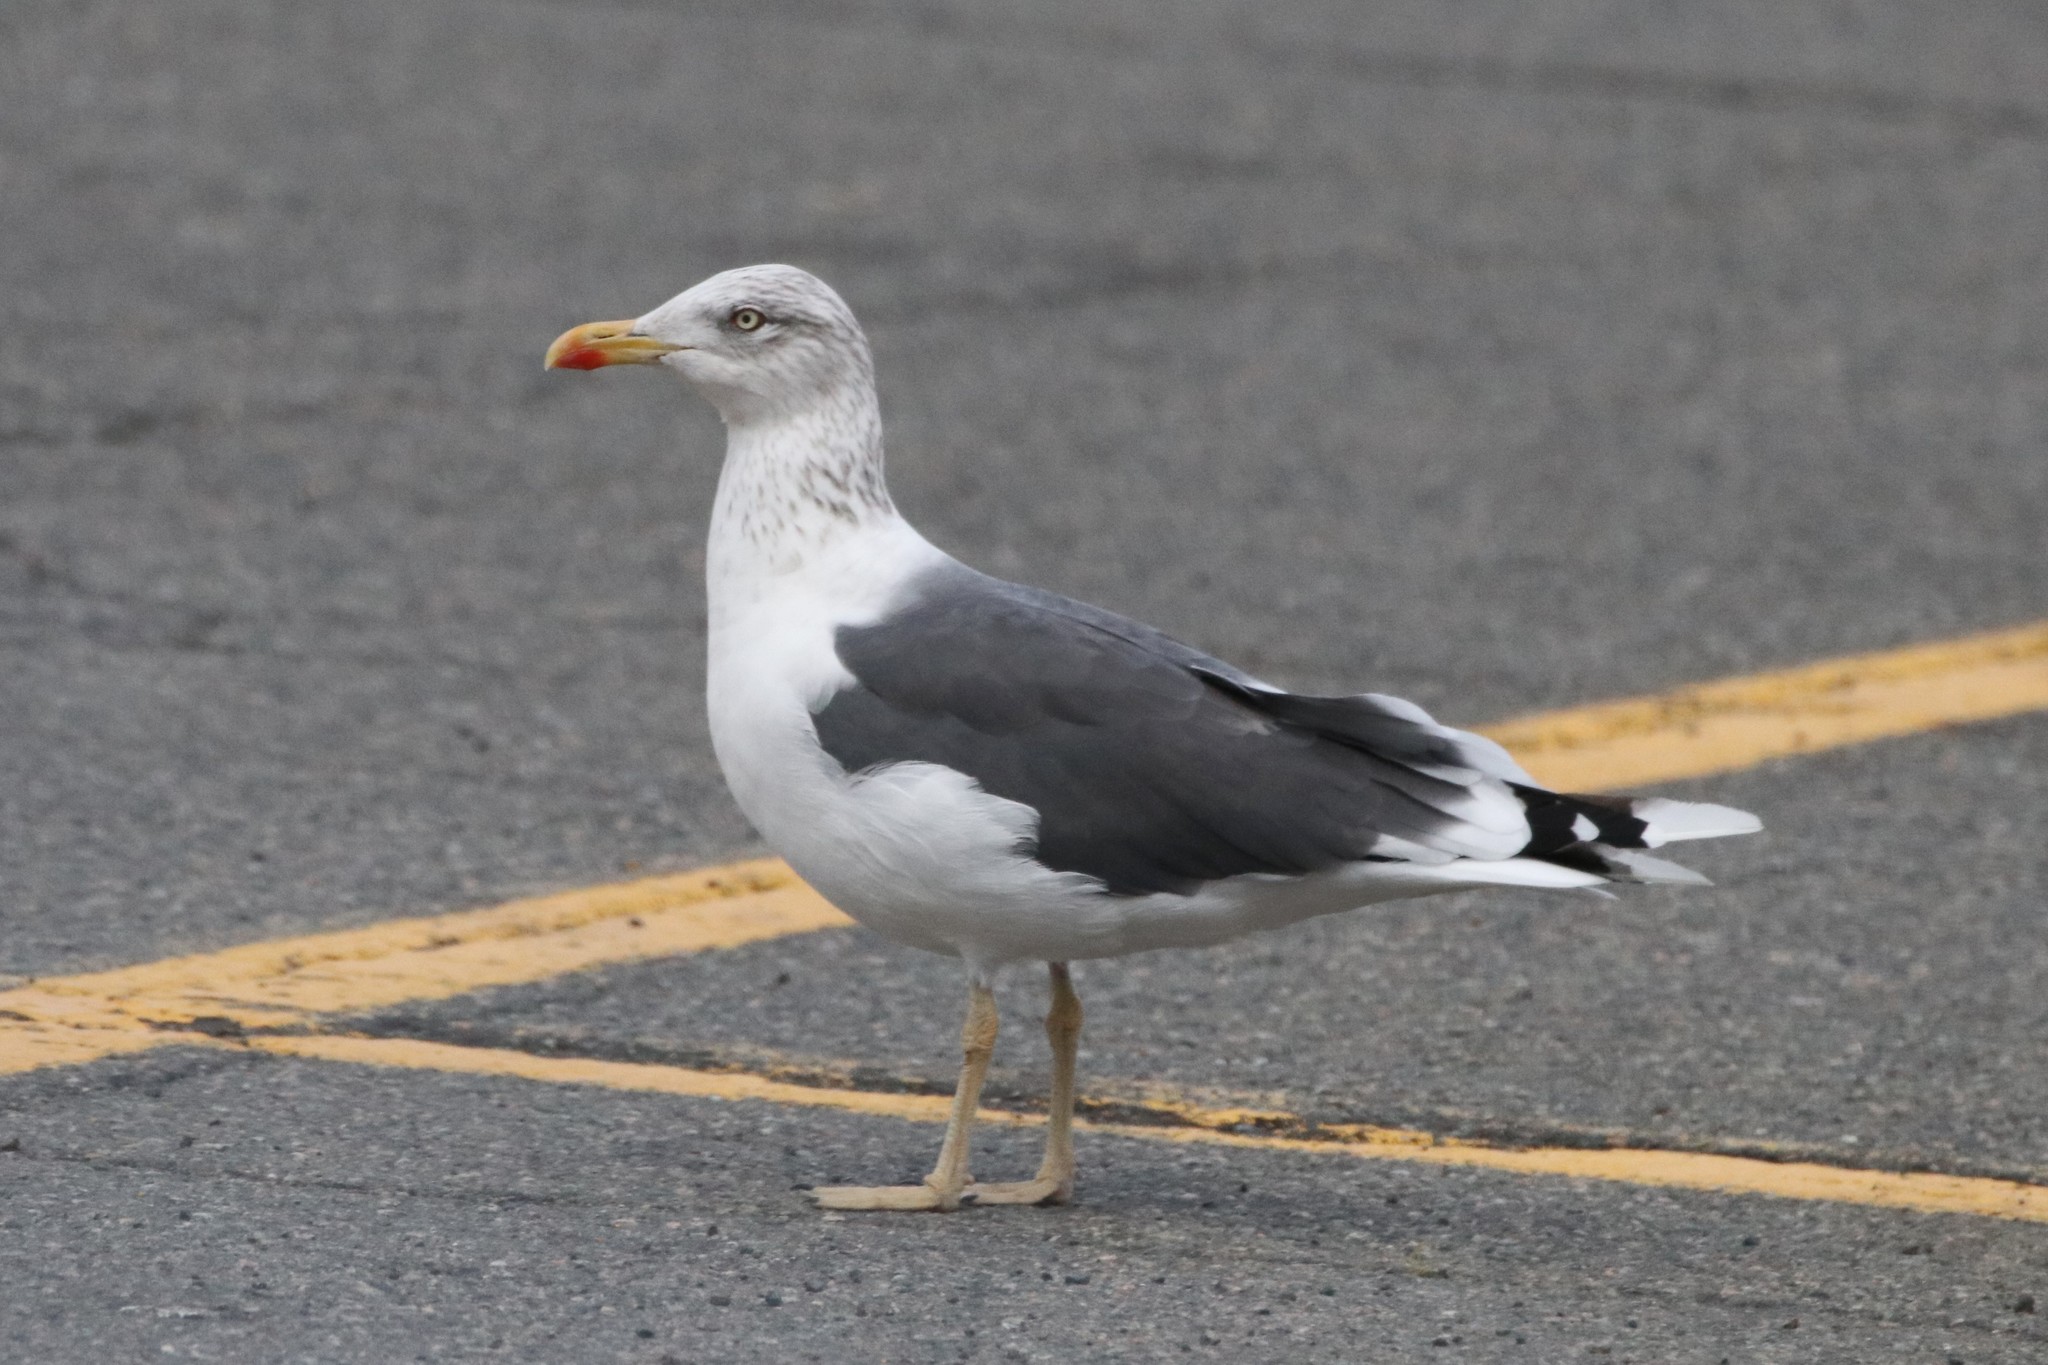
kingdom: Animalia
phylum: Chordata
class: Aves
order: Charadriiformes
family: Laridae
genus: Larus
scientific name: Larus fuscus
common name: Lesser black-backed gull
